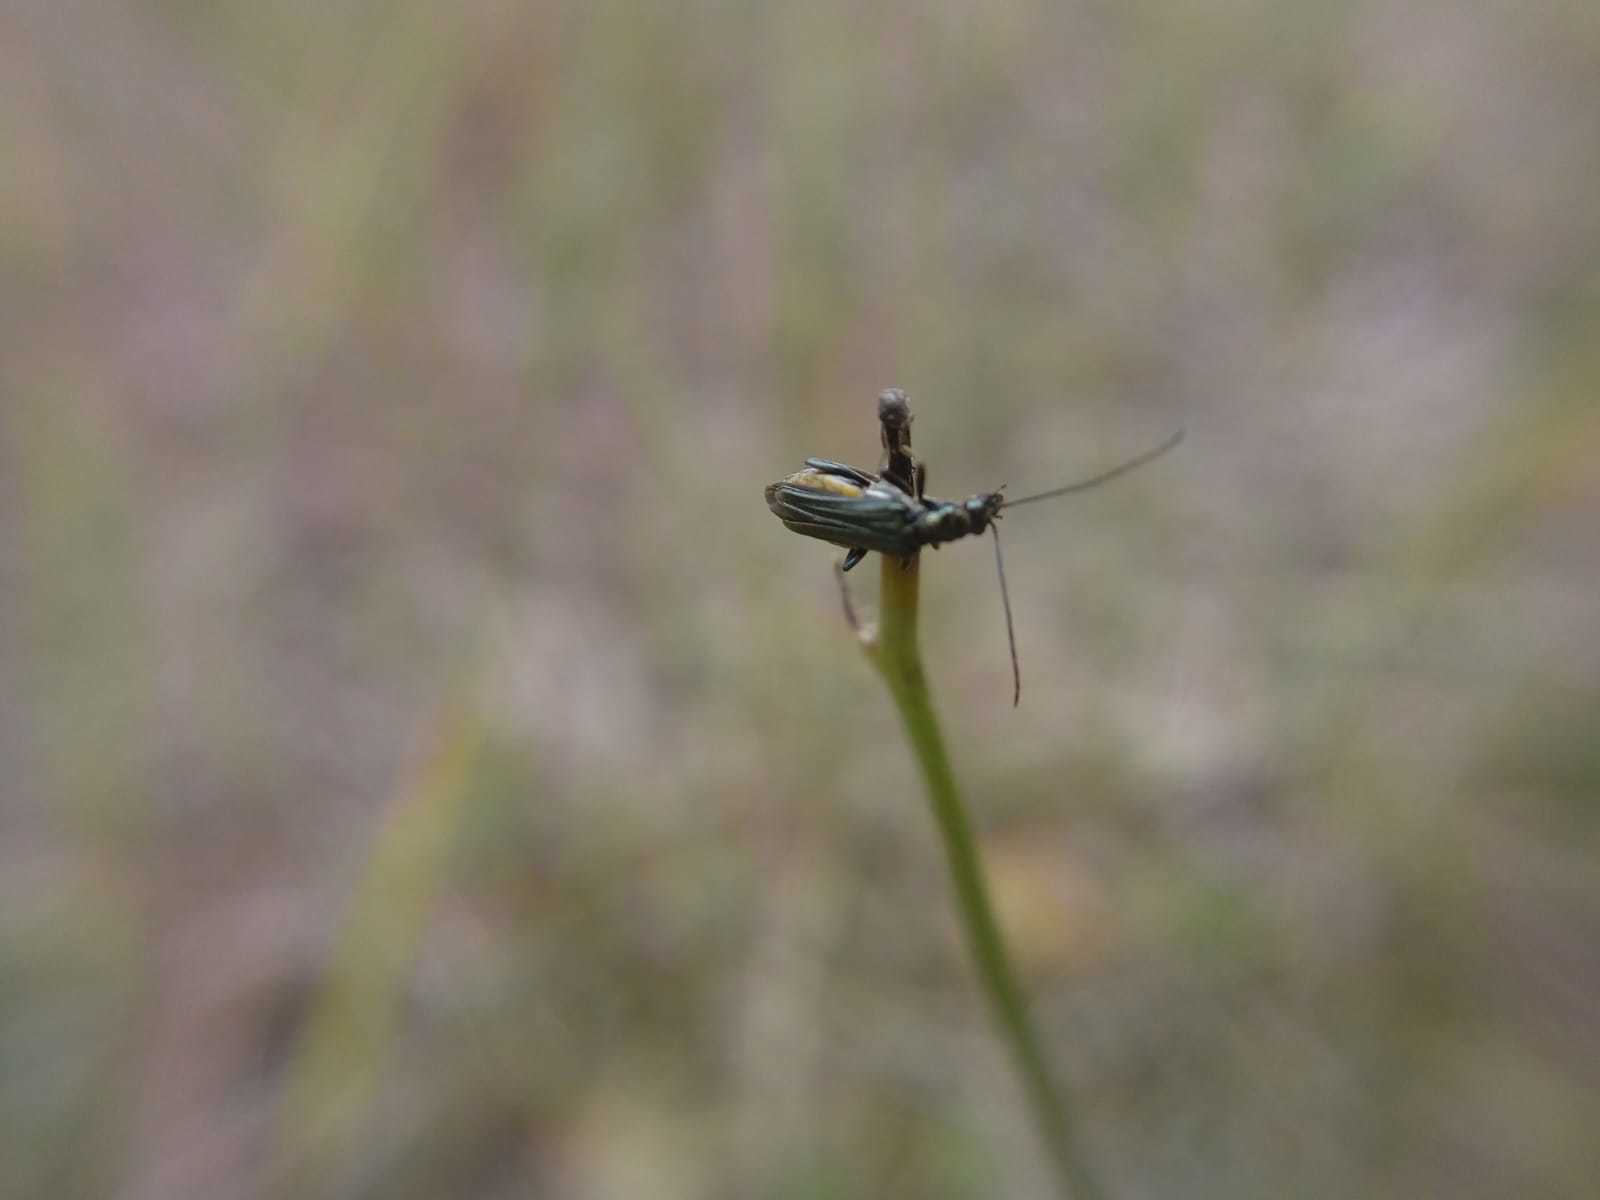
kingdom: Animalia
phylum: Arthropoda
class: Insecta
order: Coleoptera
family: Oedemeridae
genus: Oedemera
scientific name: Oedemera nobilis
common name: Swollen-thighed beetle
